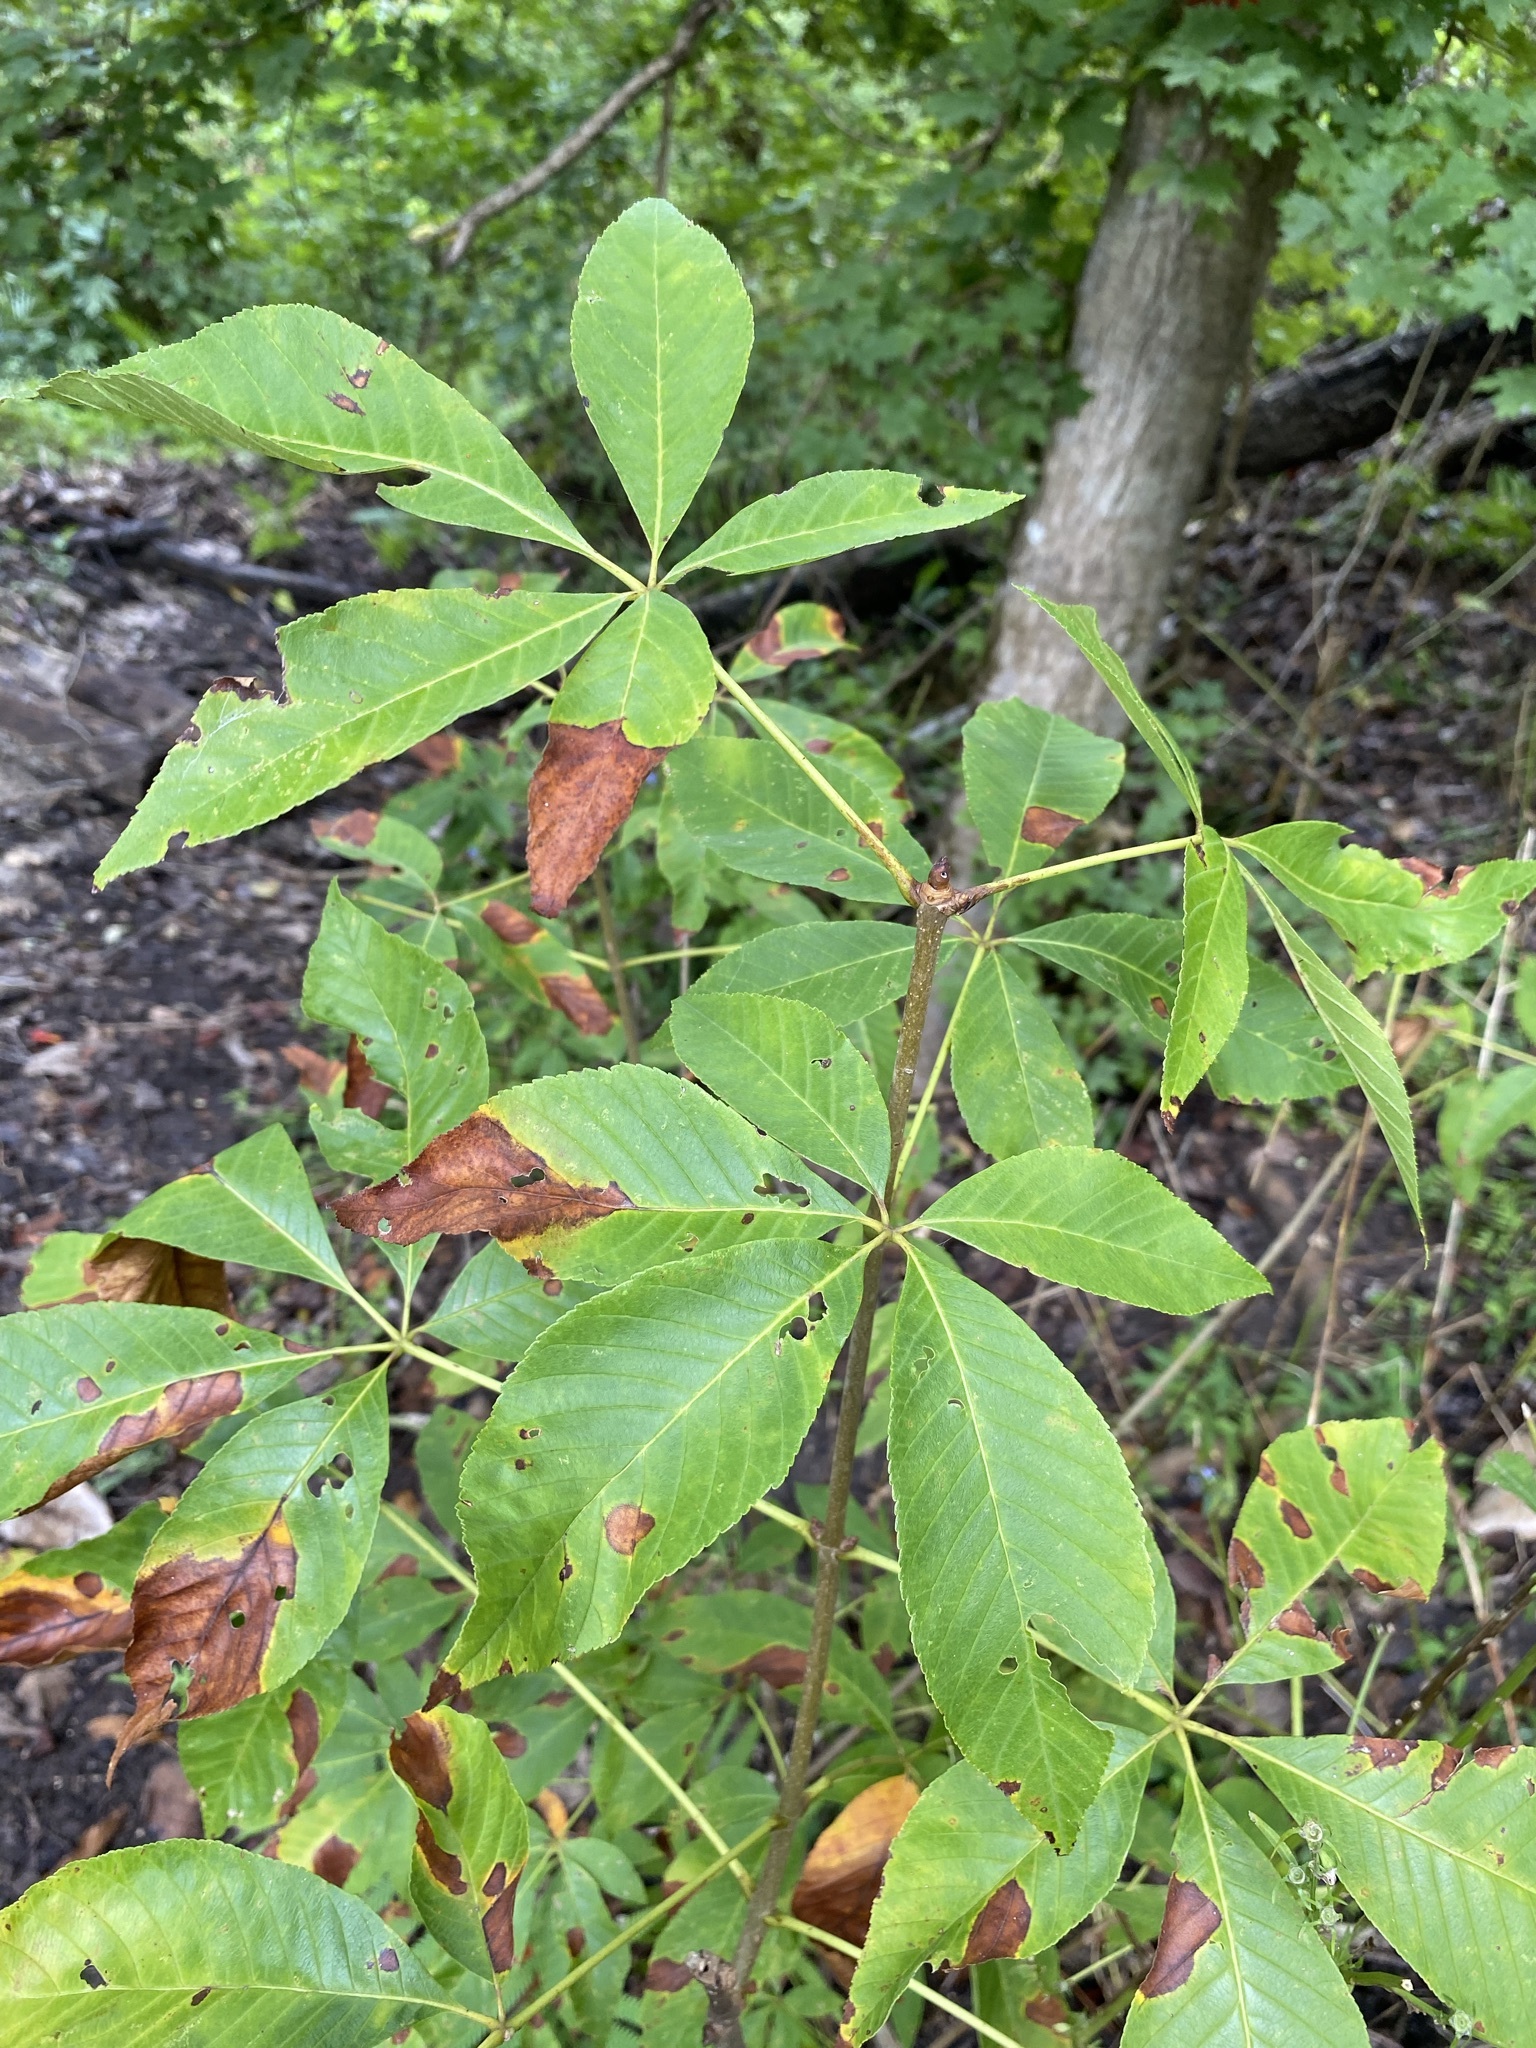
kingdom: Plantae
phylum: Tracheophyta
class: Magnoliopsida
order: Sapindales
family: Sapindaceae
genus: Aesculus
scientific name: Aesculus pavia
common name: Red buckeye
